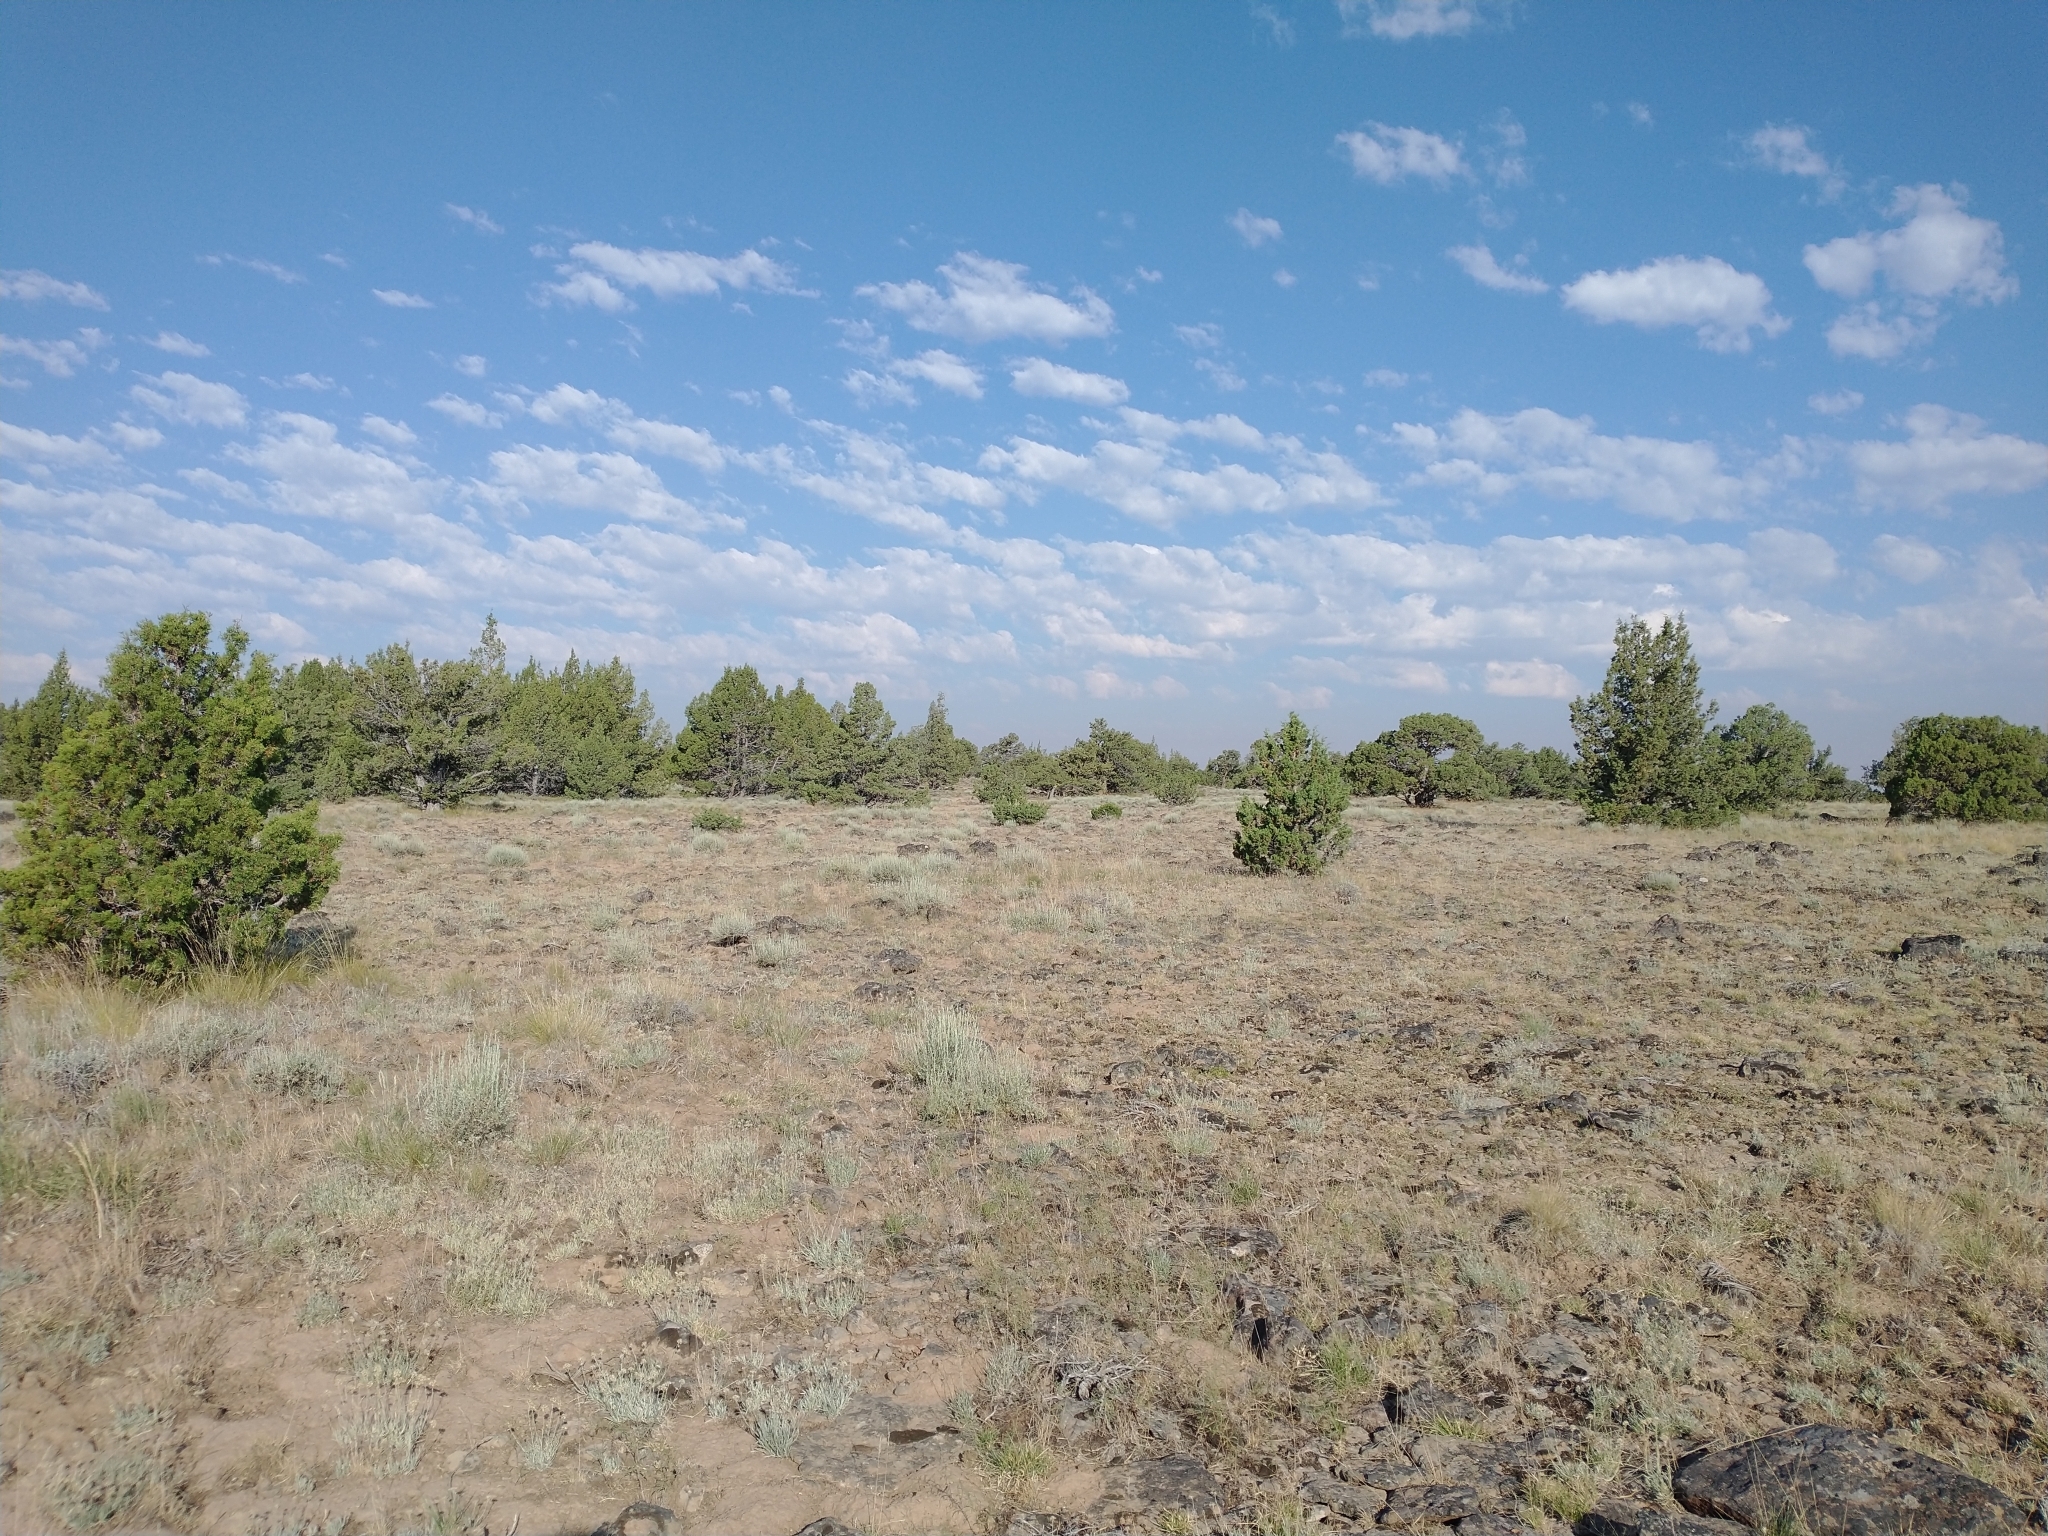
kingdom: Plantae
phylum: Tracheophyta
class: Pinopsida
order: Pinales
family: Cupressaceae
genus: Juniperus
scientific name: Juniperus occidentalis
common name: Western juniper
